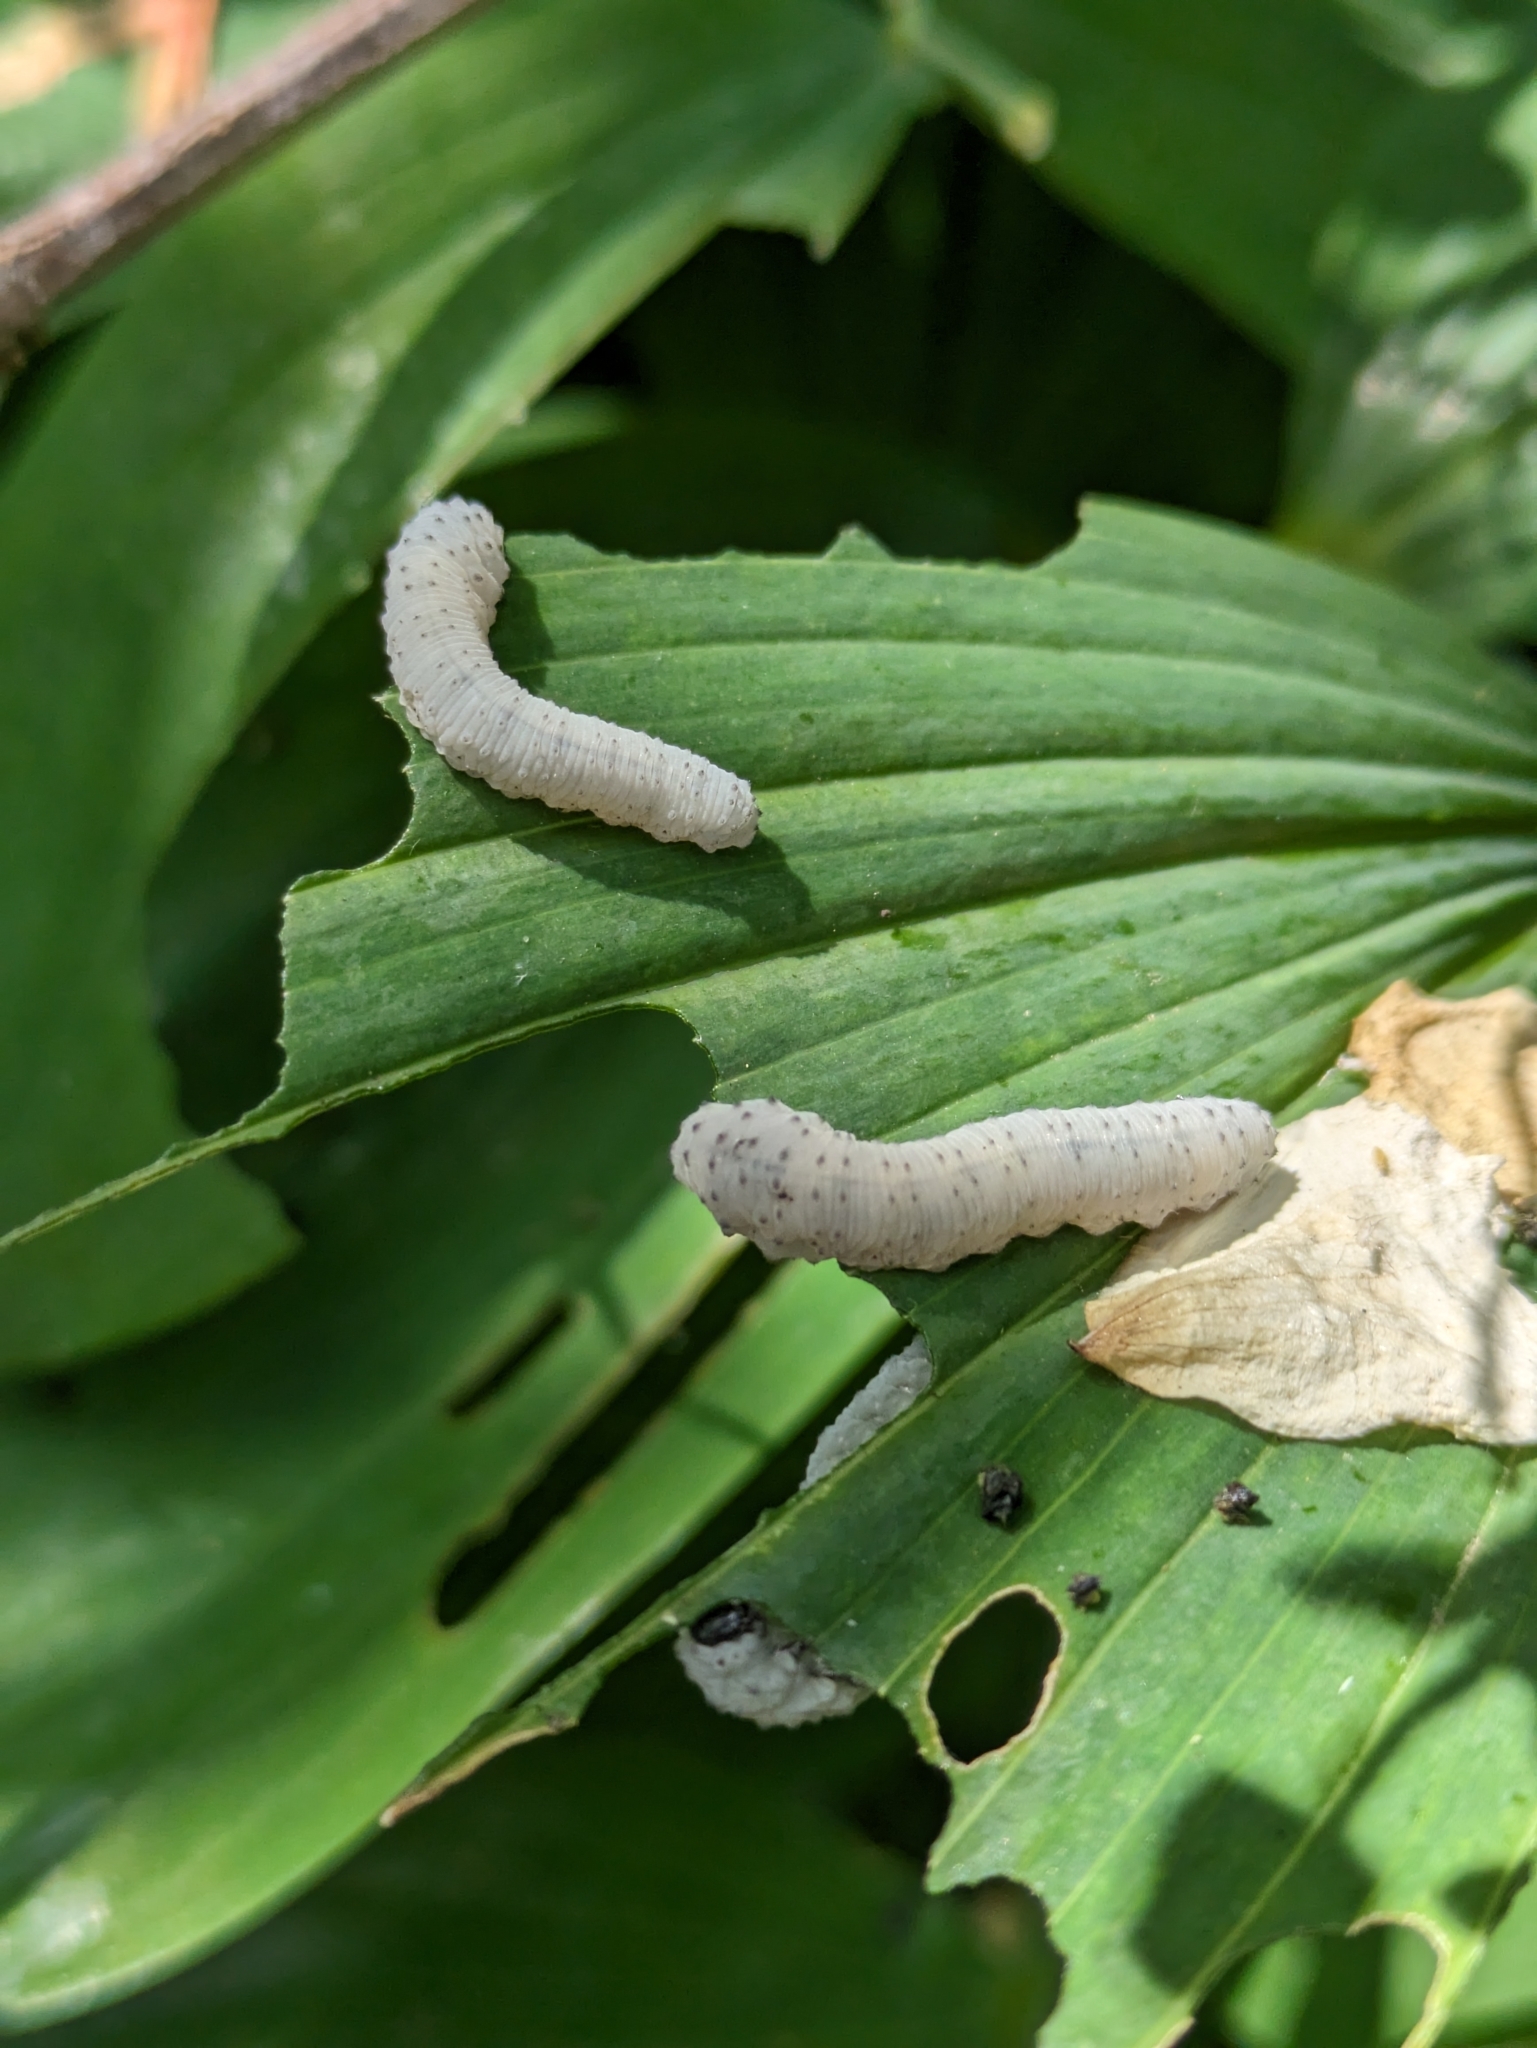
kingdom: Animalia
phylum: Arthropoda
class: Insecta
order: Hymenoptera
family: Tenthredinidae
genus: Phymatocera
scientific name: Phymatocera aterrima
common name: Solomon's-seal sawfly
